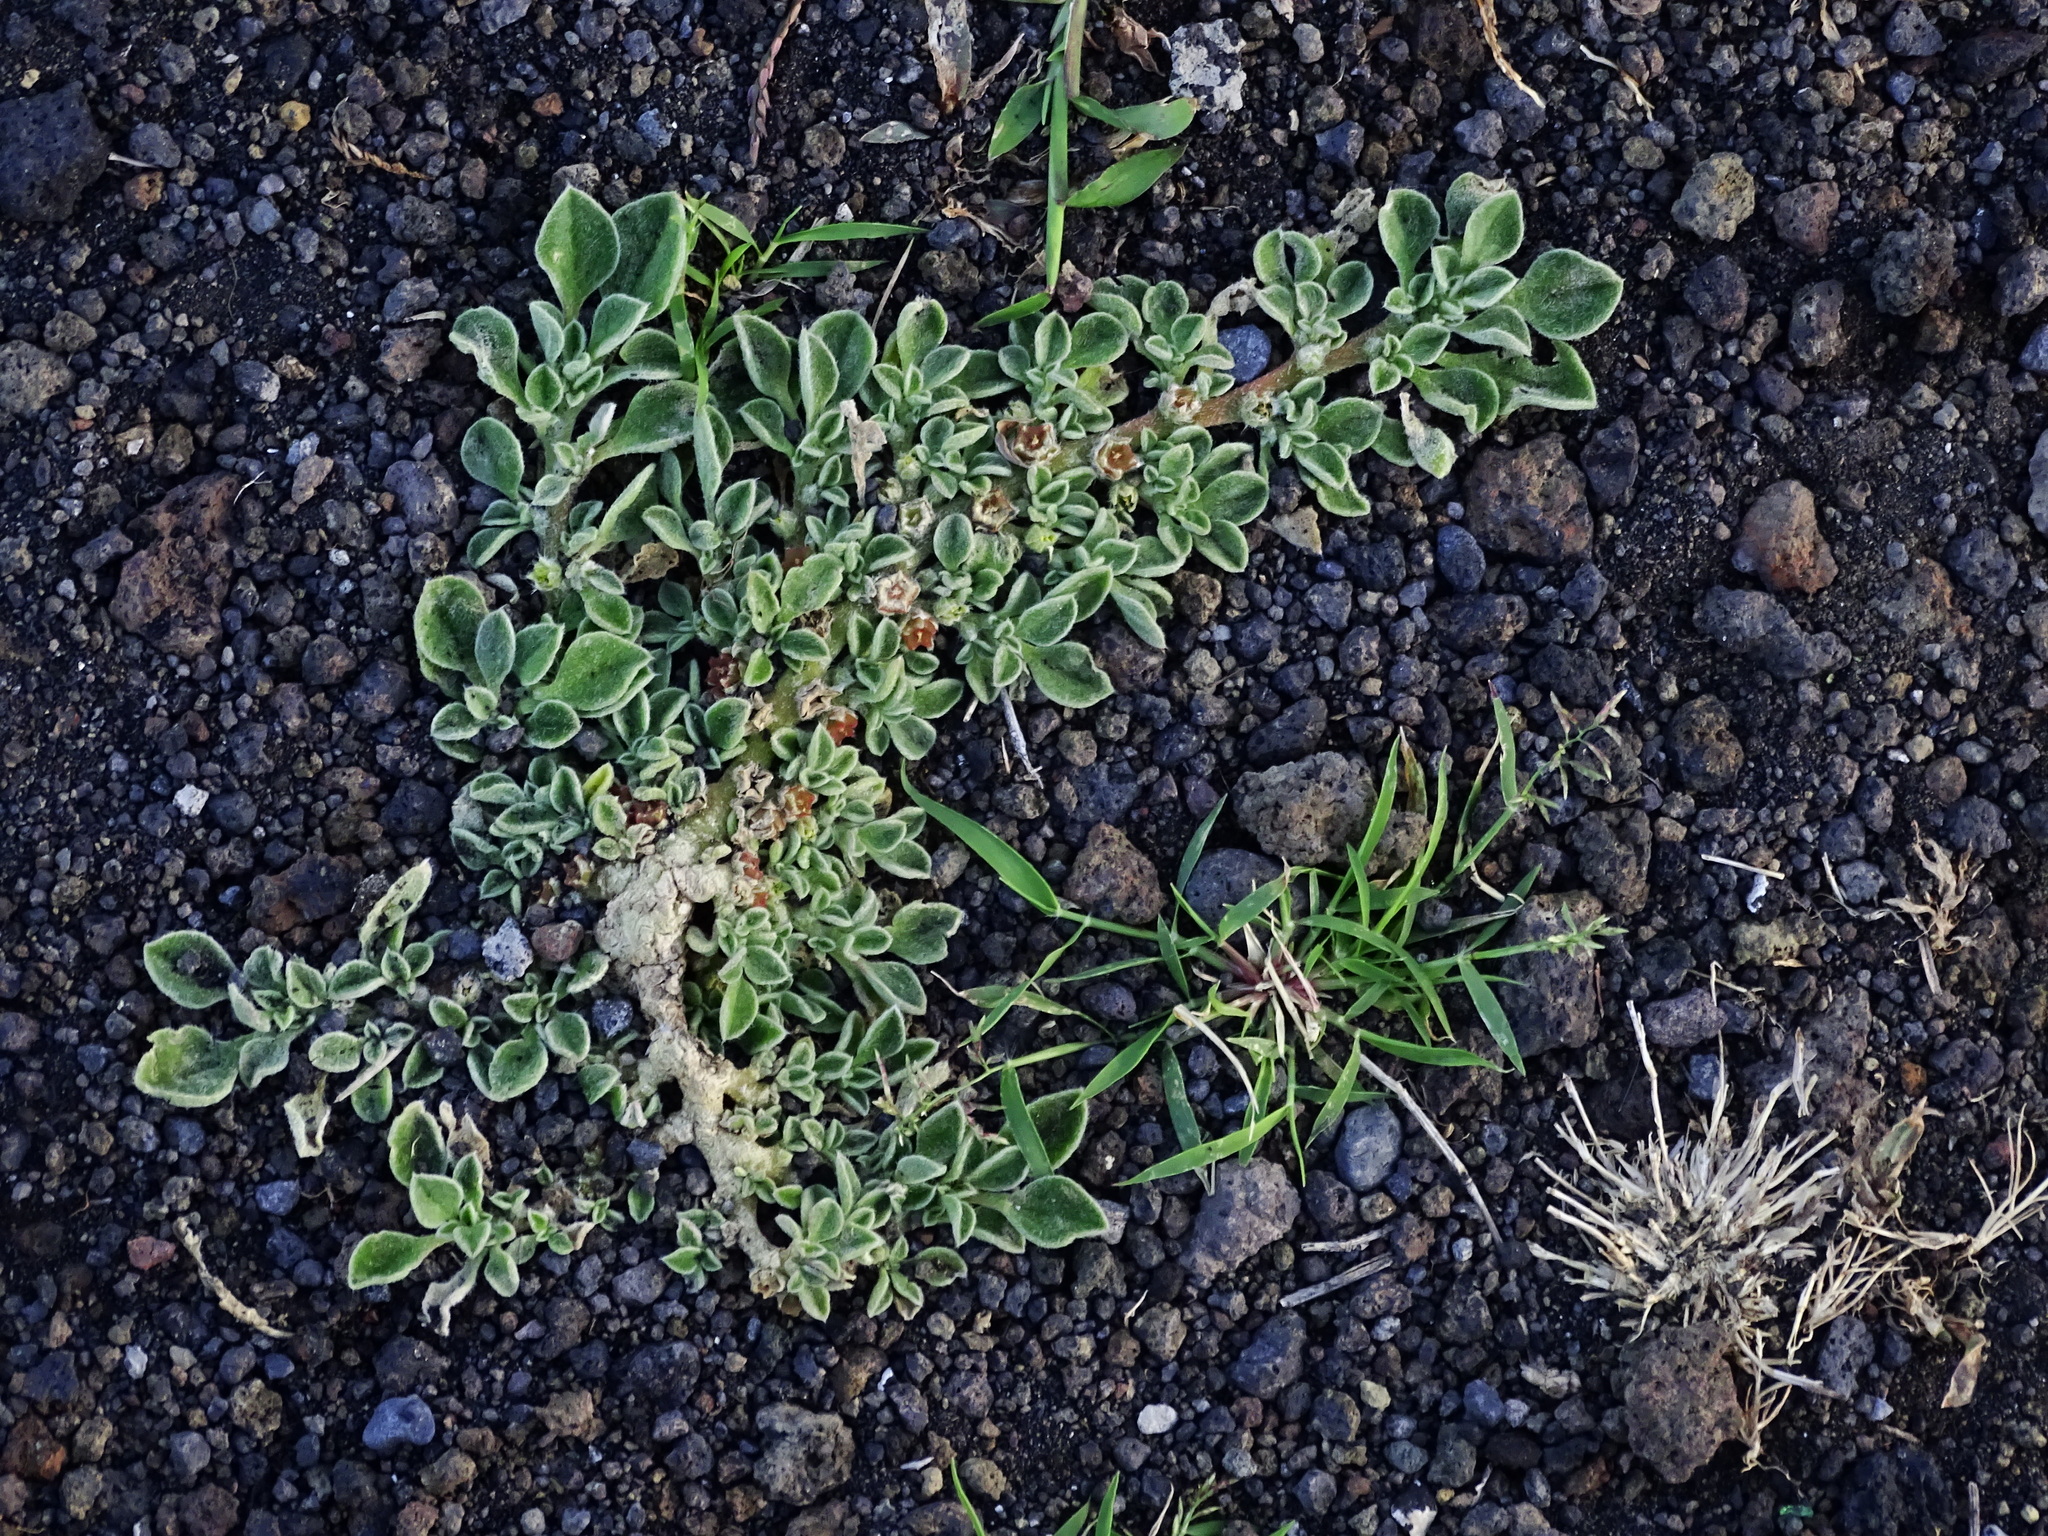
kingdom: Plantae
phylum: Tracheophyta
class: Magnoliopsida
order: Caryophyllales
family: Aizoaceae
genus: Aizoon
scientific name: Aizoon canariense
